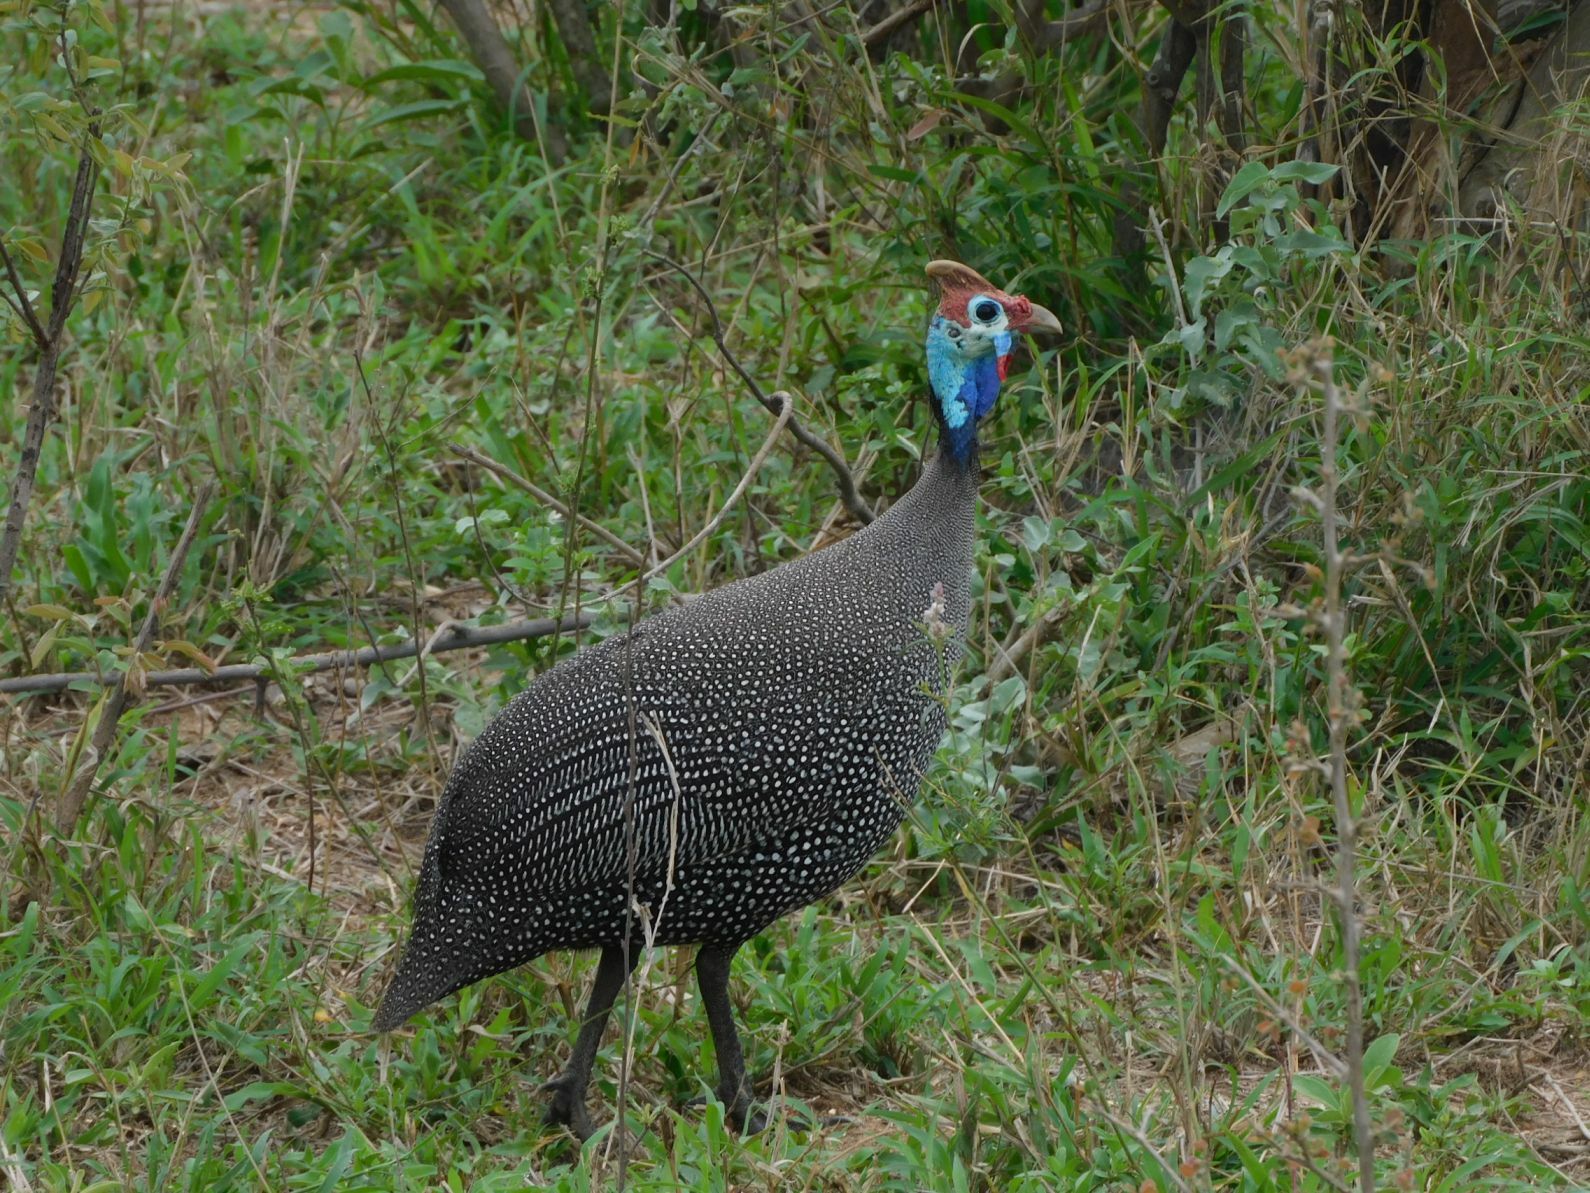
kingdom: Animalia
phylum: Chordata
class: Aves
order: Galliformes
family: Numididae
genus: Numida
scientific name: Numida meleagris
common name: Helmeted guineafowl
